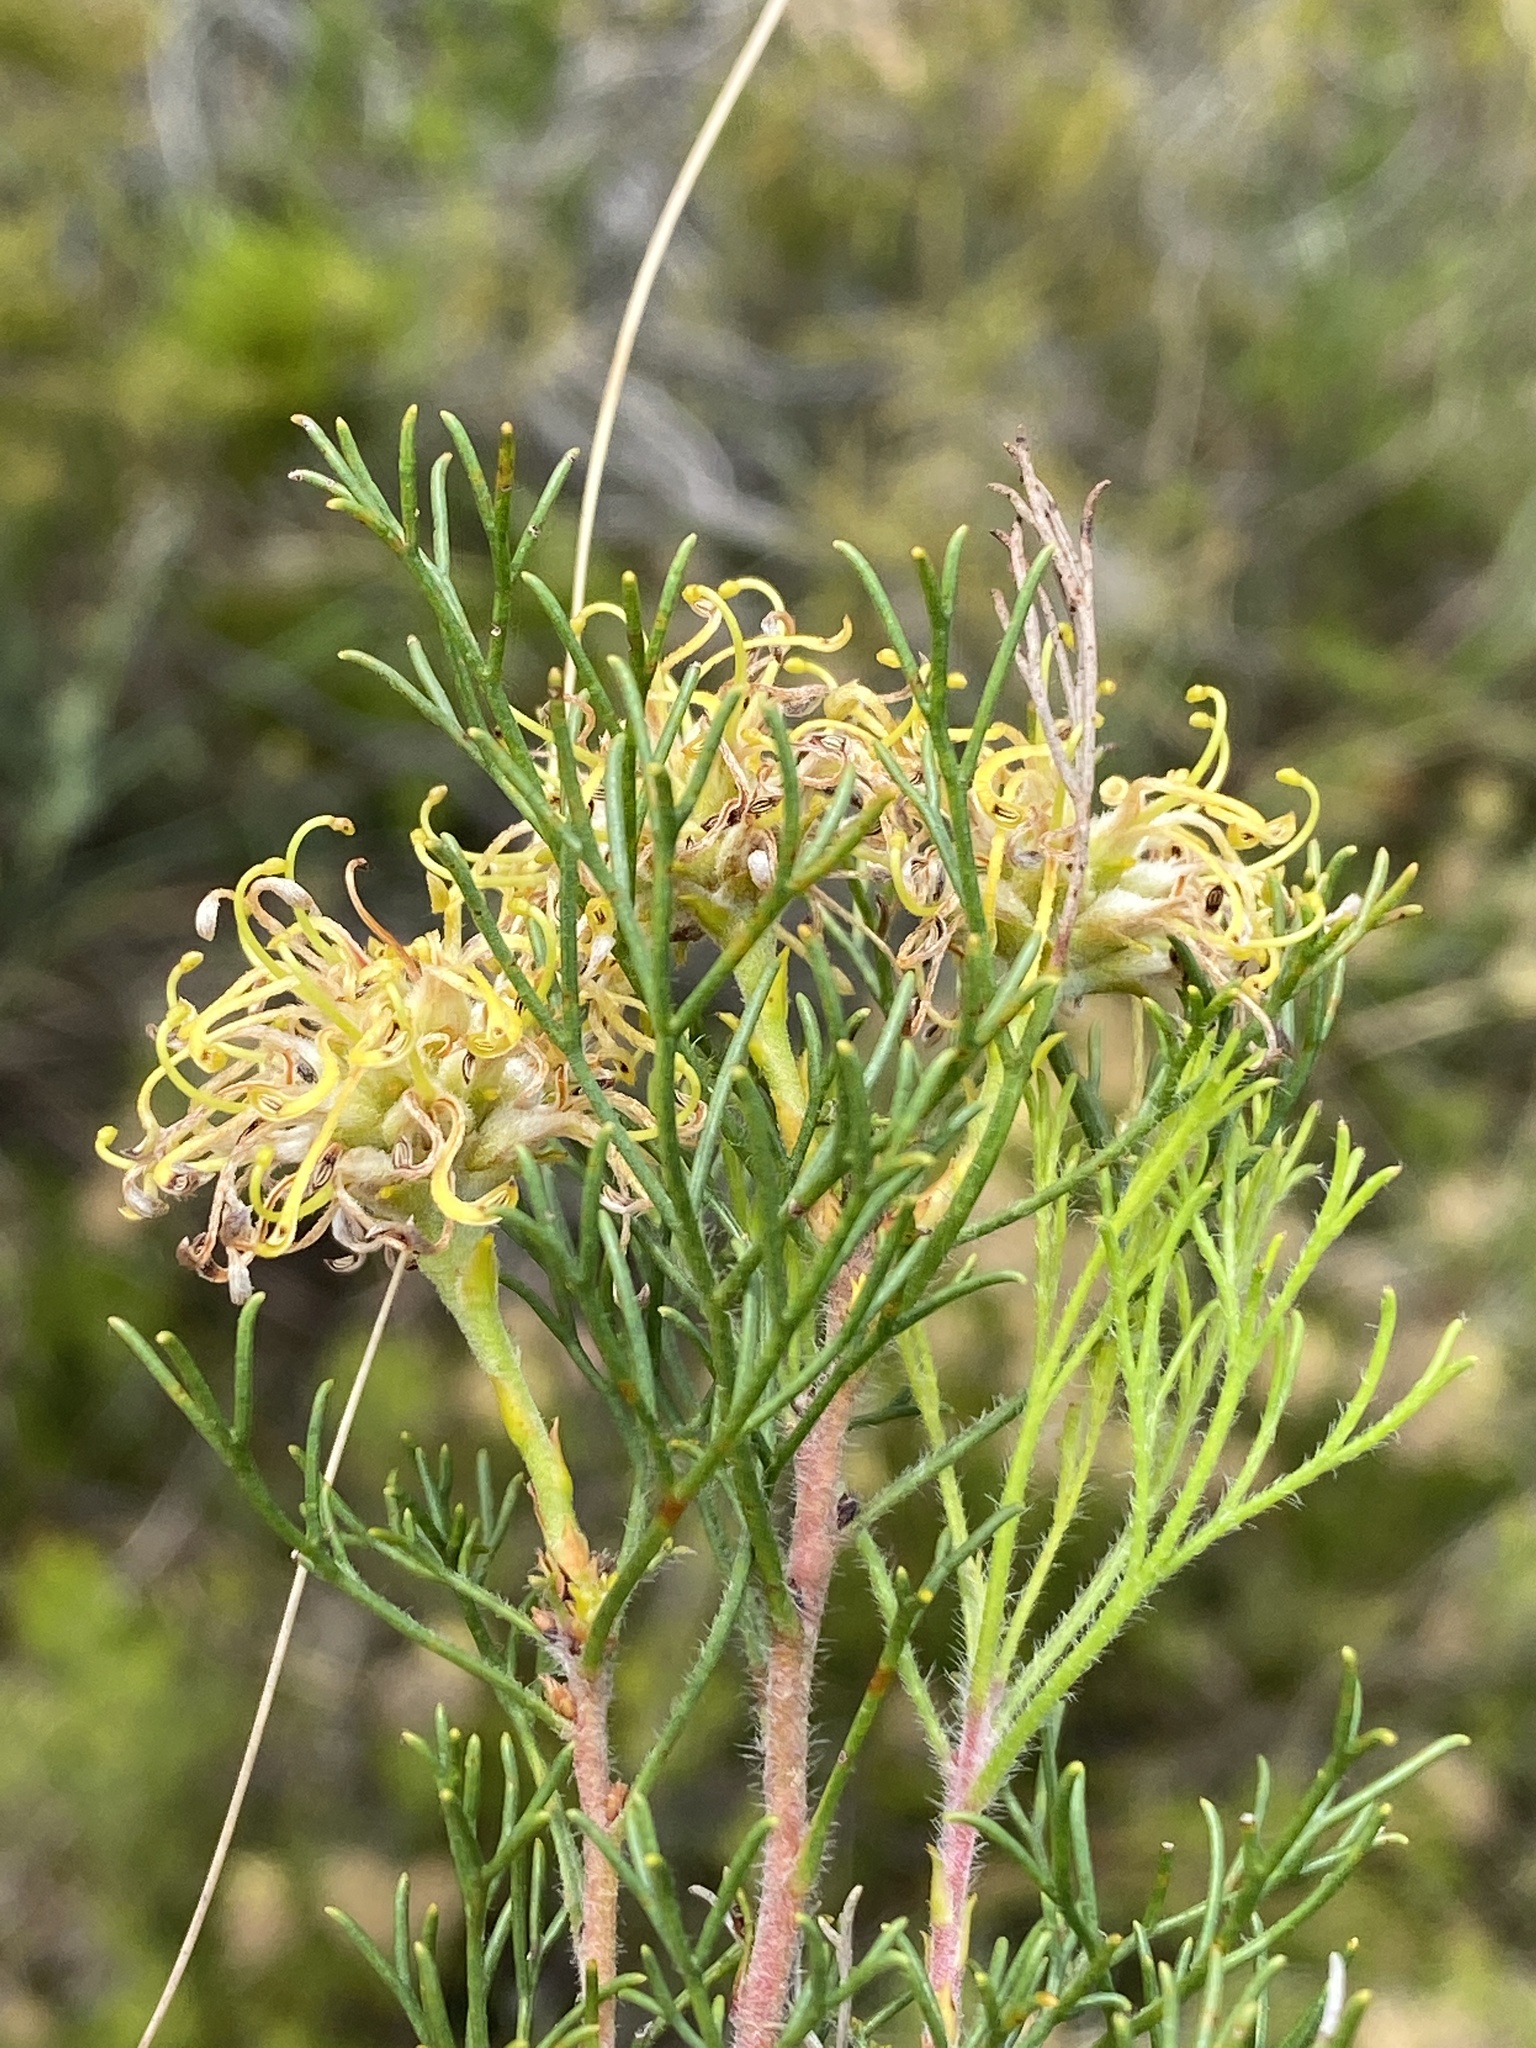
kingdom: Plantae
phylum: Tracheophyta
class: Magnoliopsida
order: Proteales
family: Proteaceae
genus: Serruria
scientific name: Serruria
